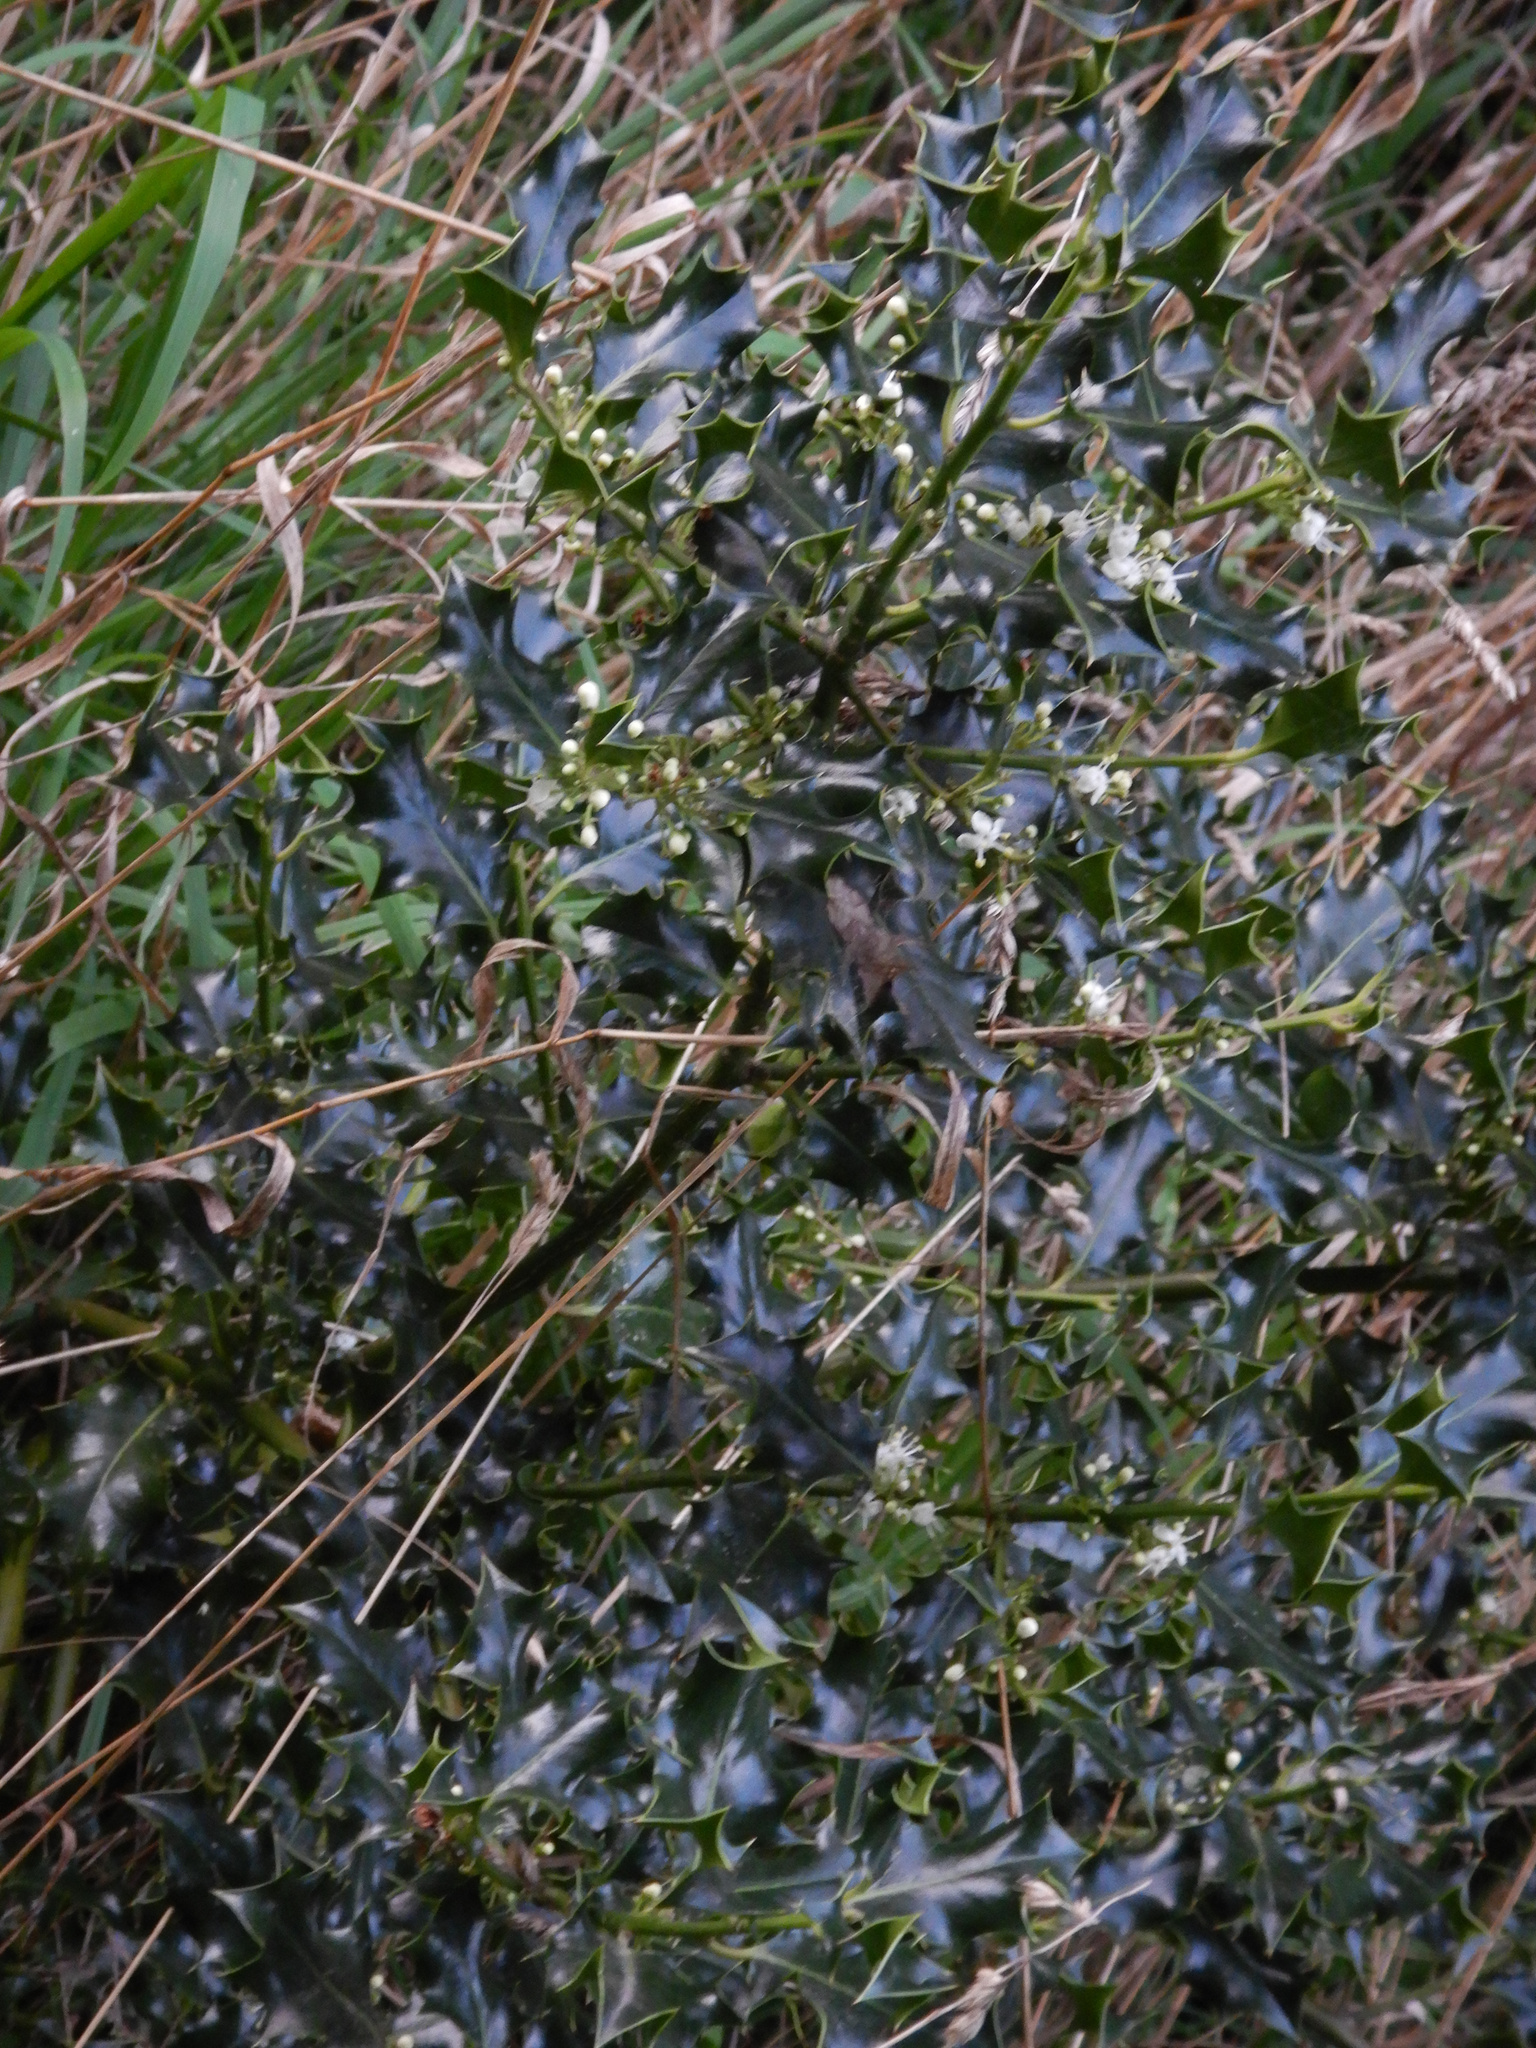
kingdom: Plantae
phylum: Tracheophyta
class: Magnoliopsida
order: Aquifoliales
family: Aquifoliaceae
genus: Ilex
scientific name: Ilex aquifolium
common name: English holly
